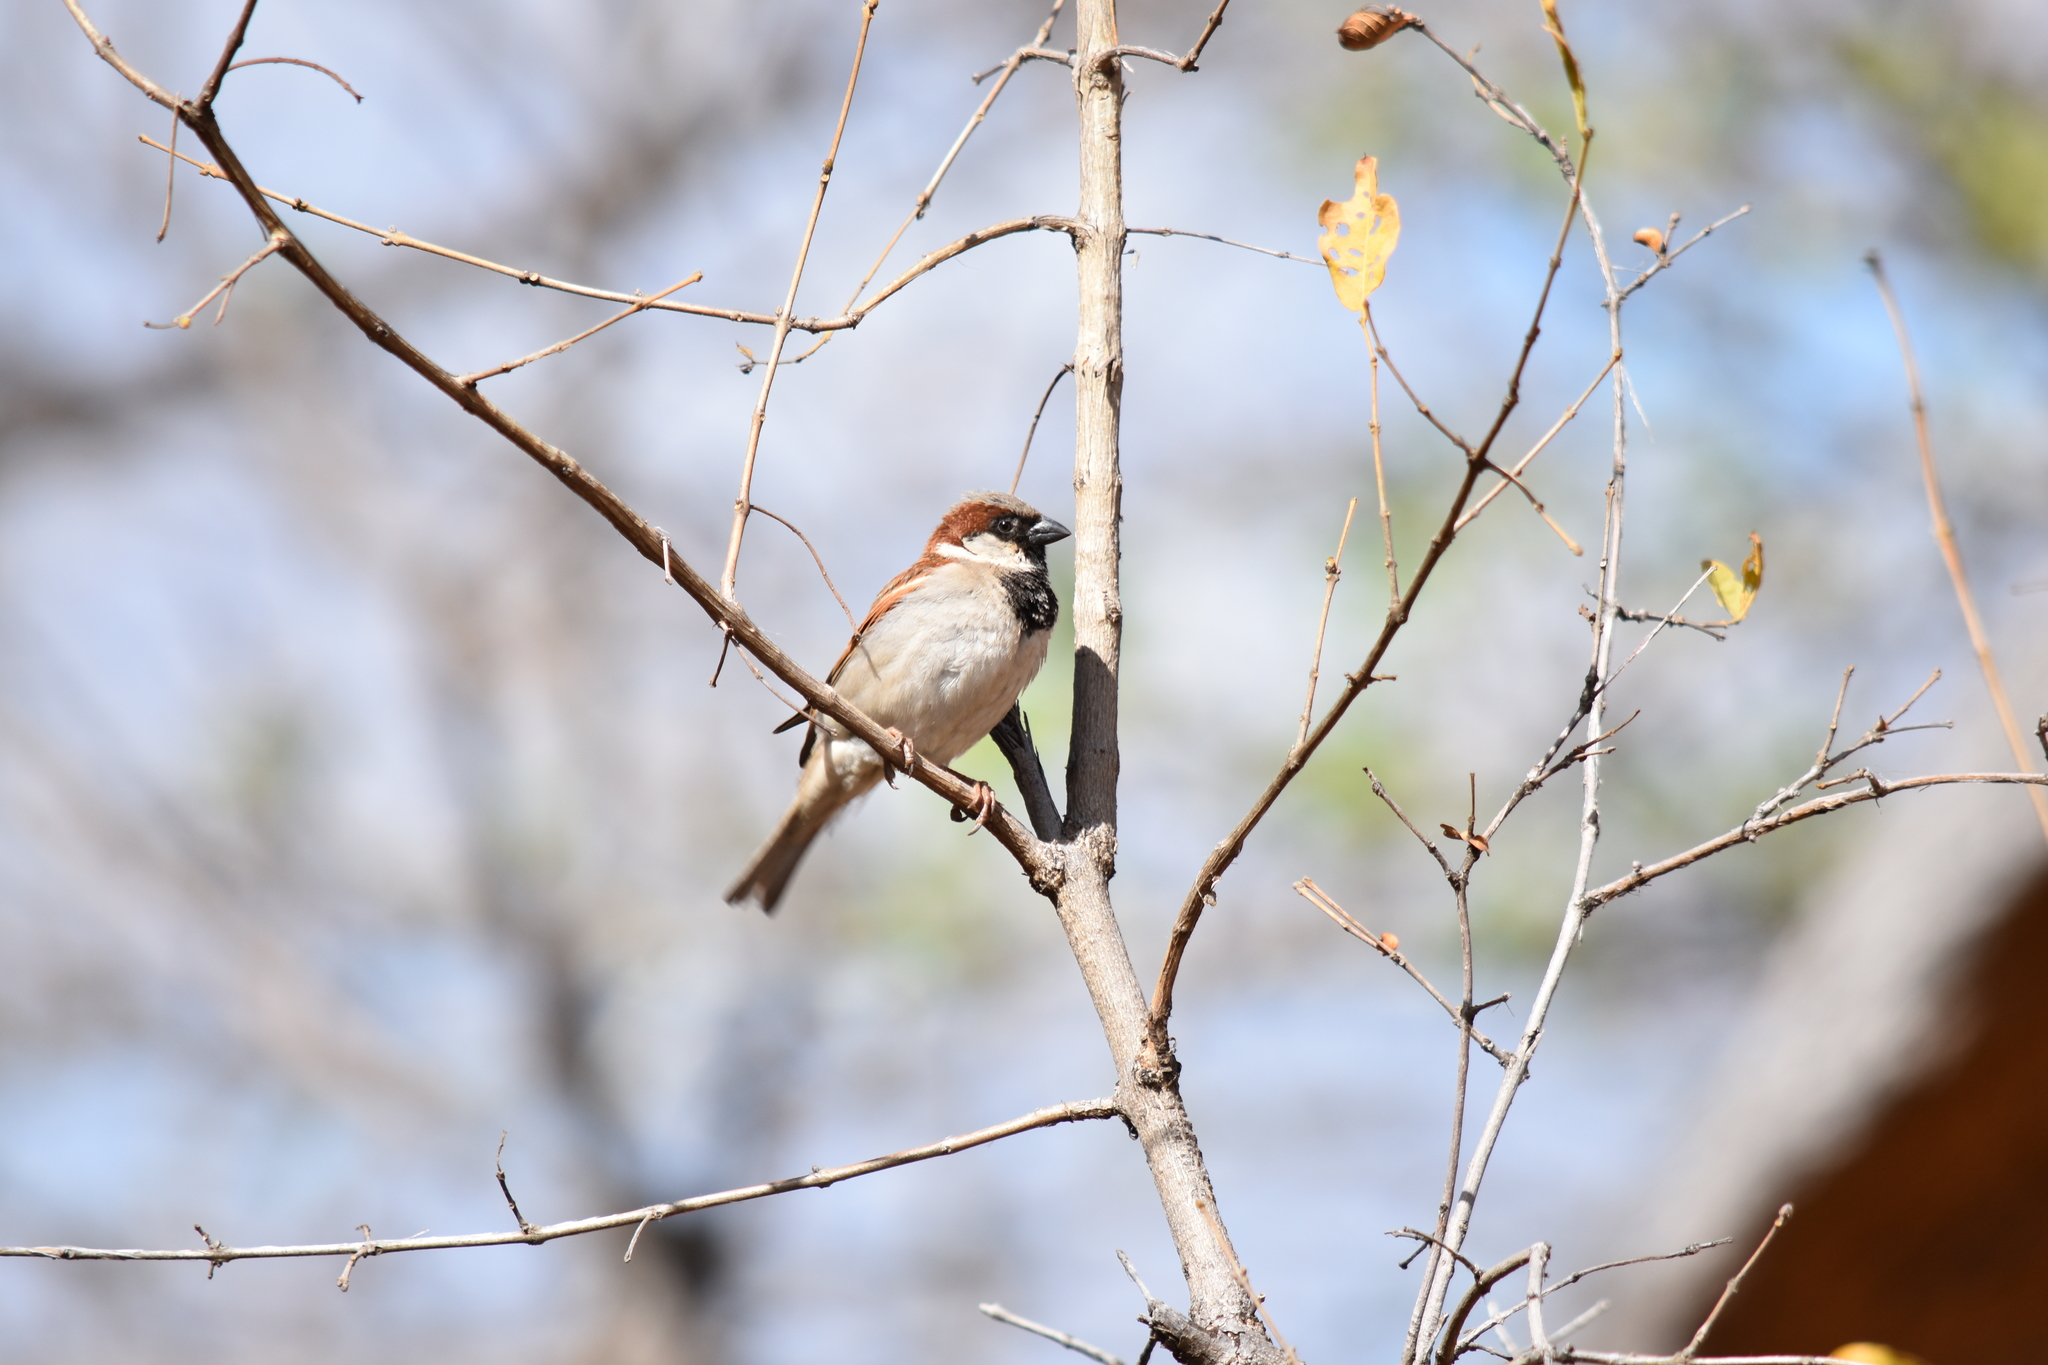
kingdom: Animalia
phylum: Chordata
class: Aves
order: Passeriformes
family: Passeridae
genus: Passer
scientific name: Passer domesticus
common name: House sparrow
